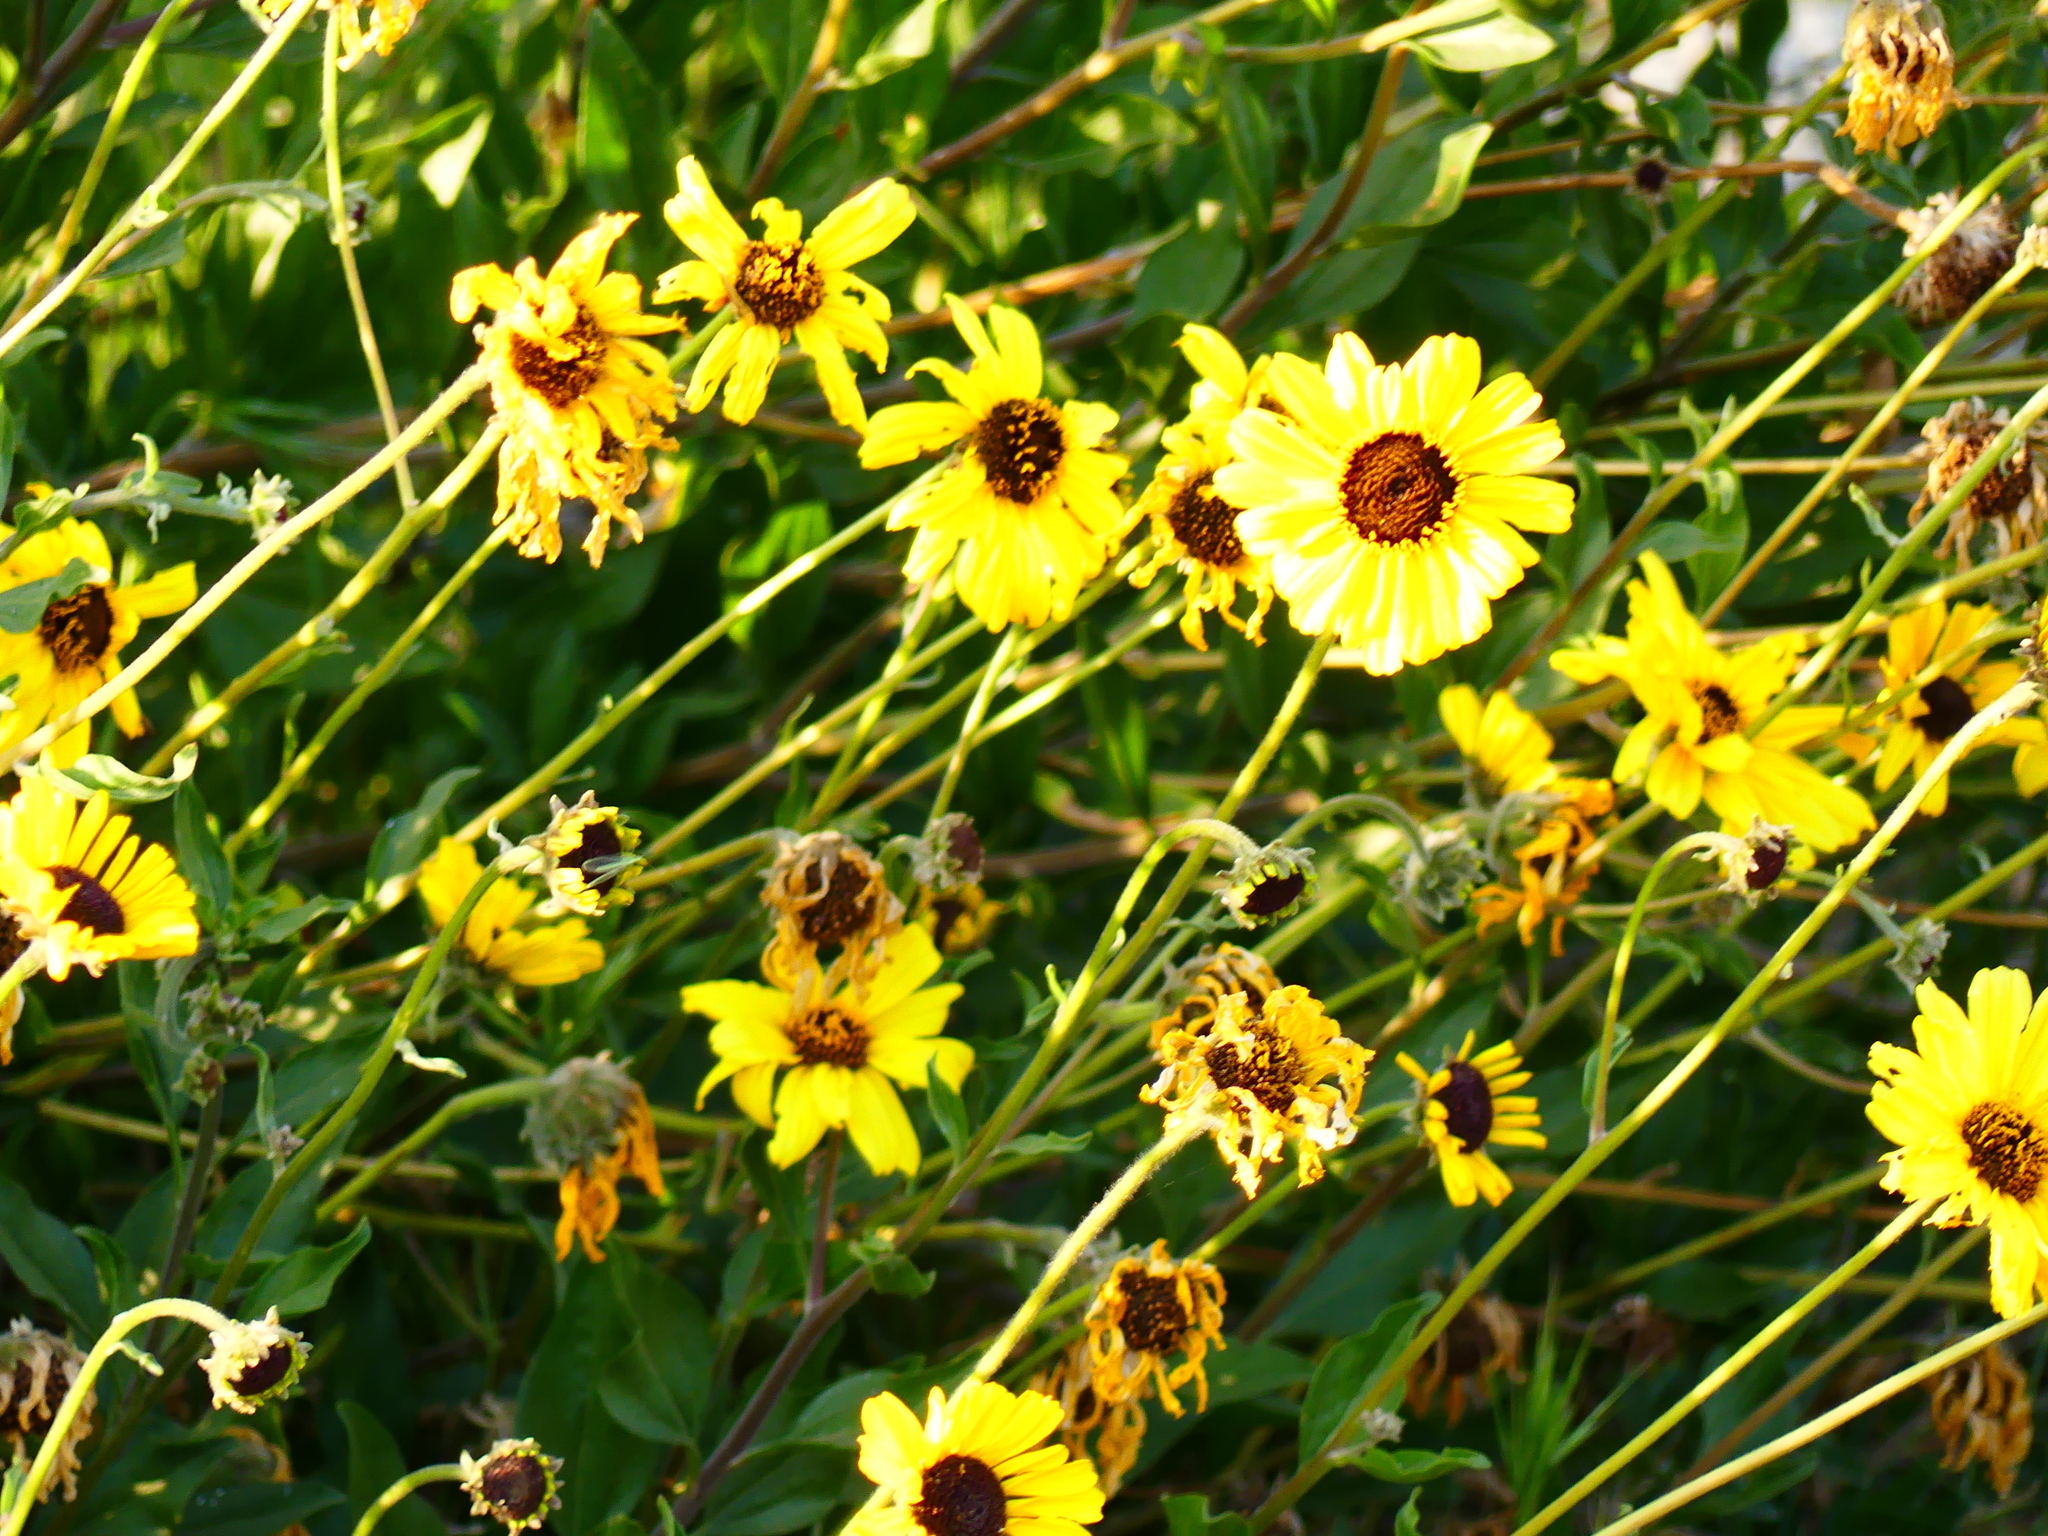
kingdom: Plantae
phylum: Tracheophyta
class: Magnoliopsida
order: Asterales
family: Asteraceae
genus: Encelia
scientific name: Encelia californica
